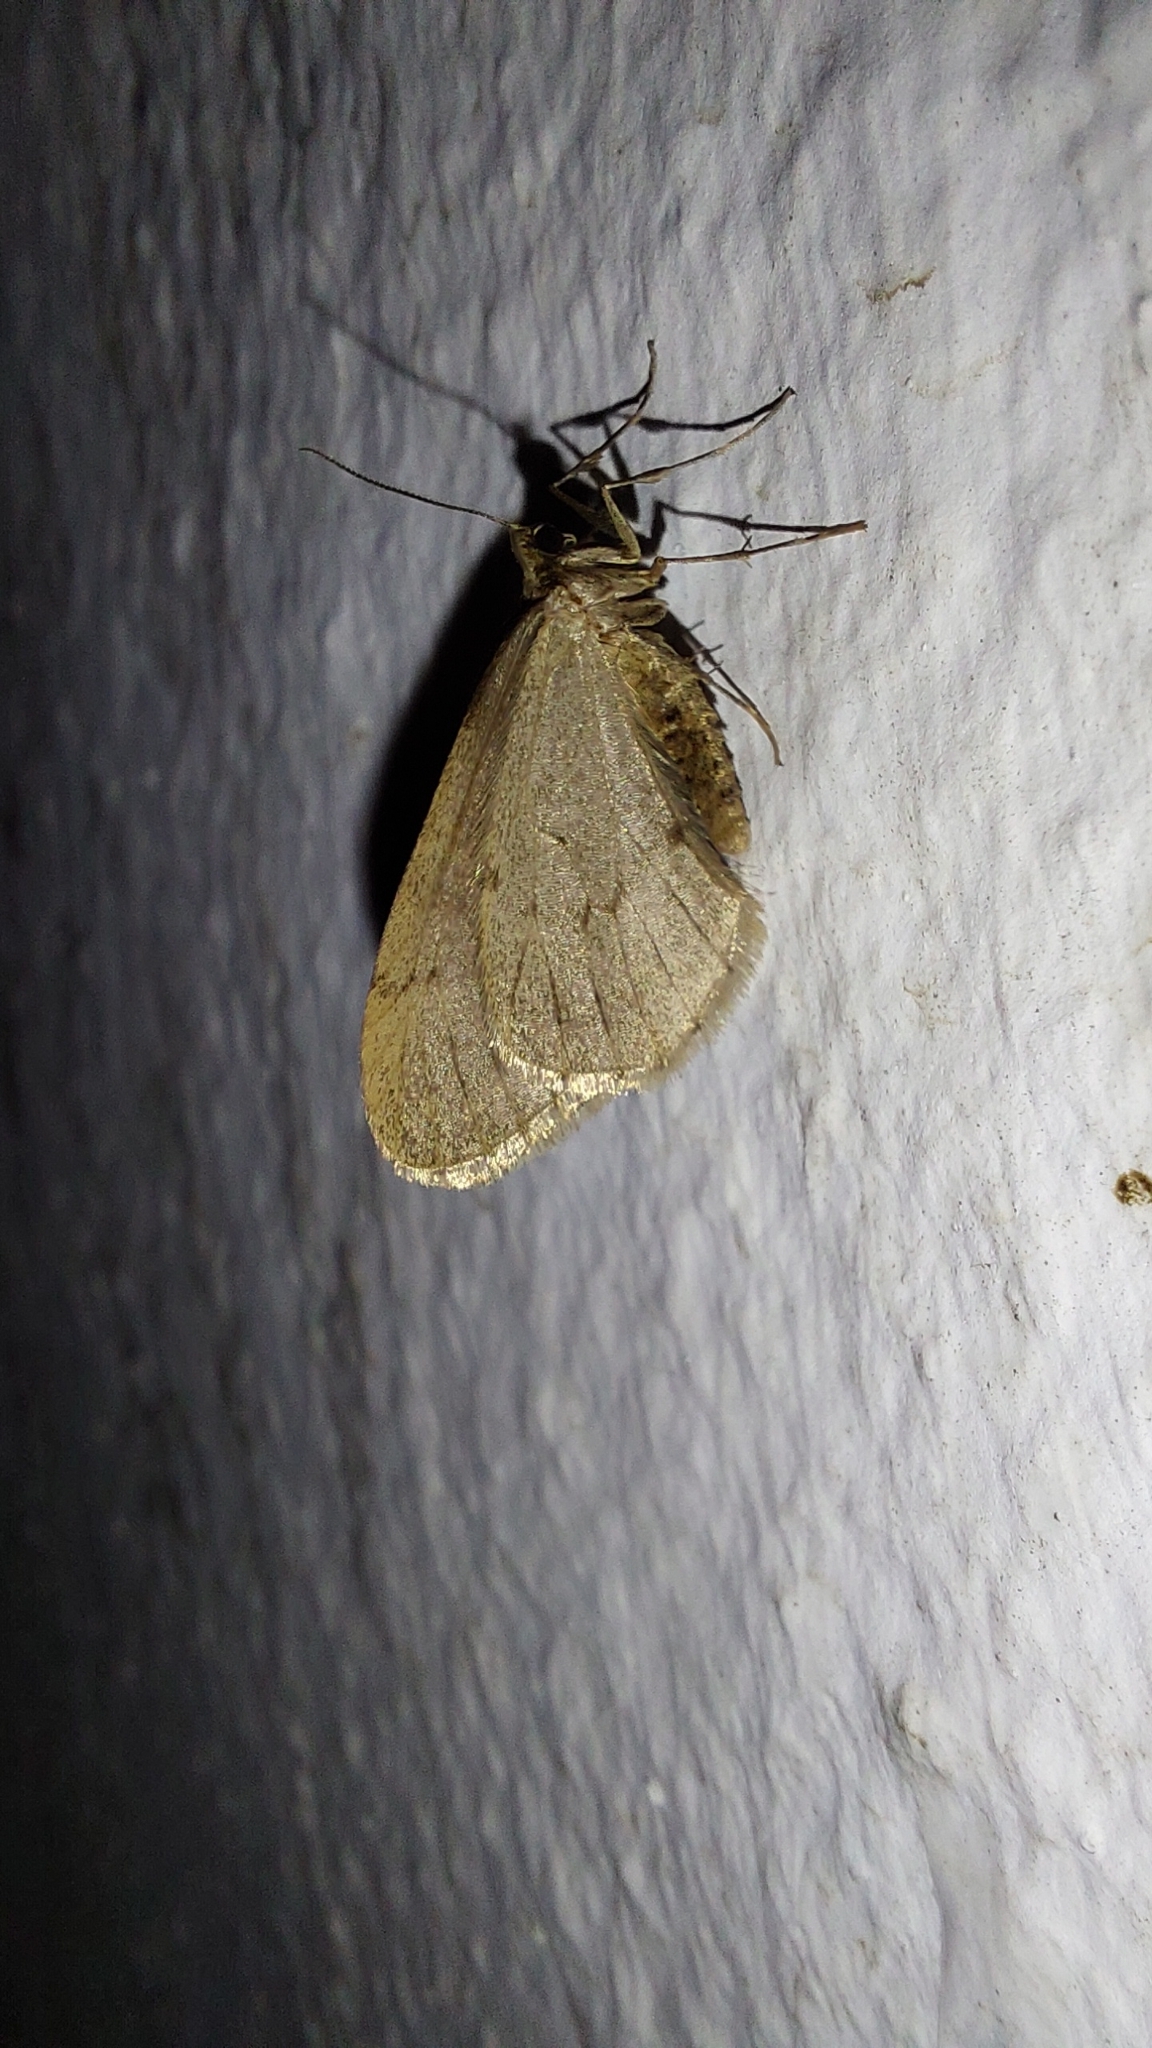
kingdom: Animalia
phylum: Arthropoda
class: Insecta
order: Lepidoptera
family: Geometridae
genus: Operophtera
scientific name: Operophtera brumata
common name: Winter moth
